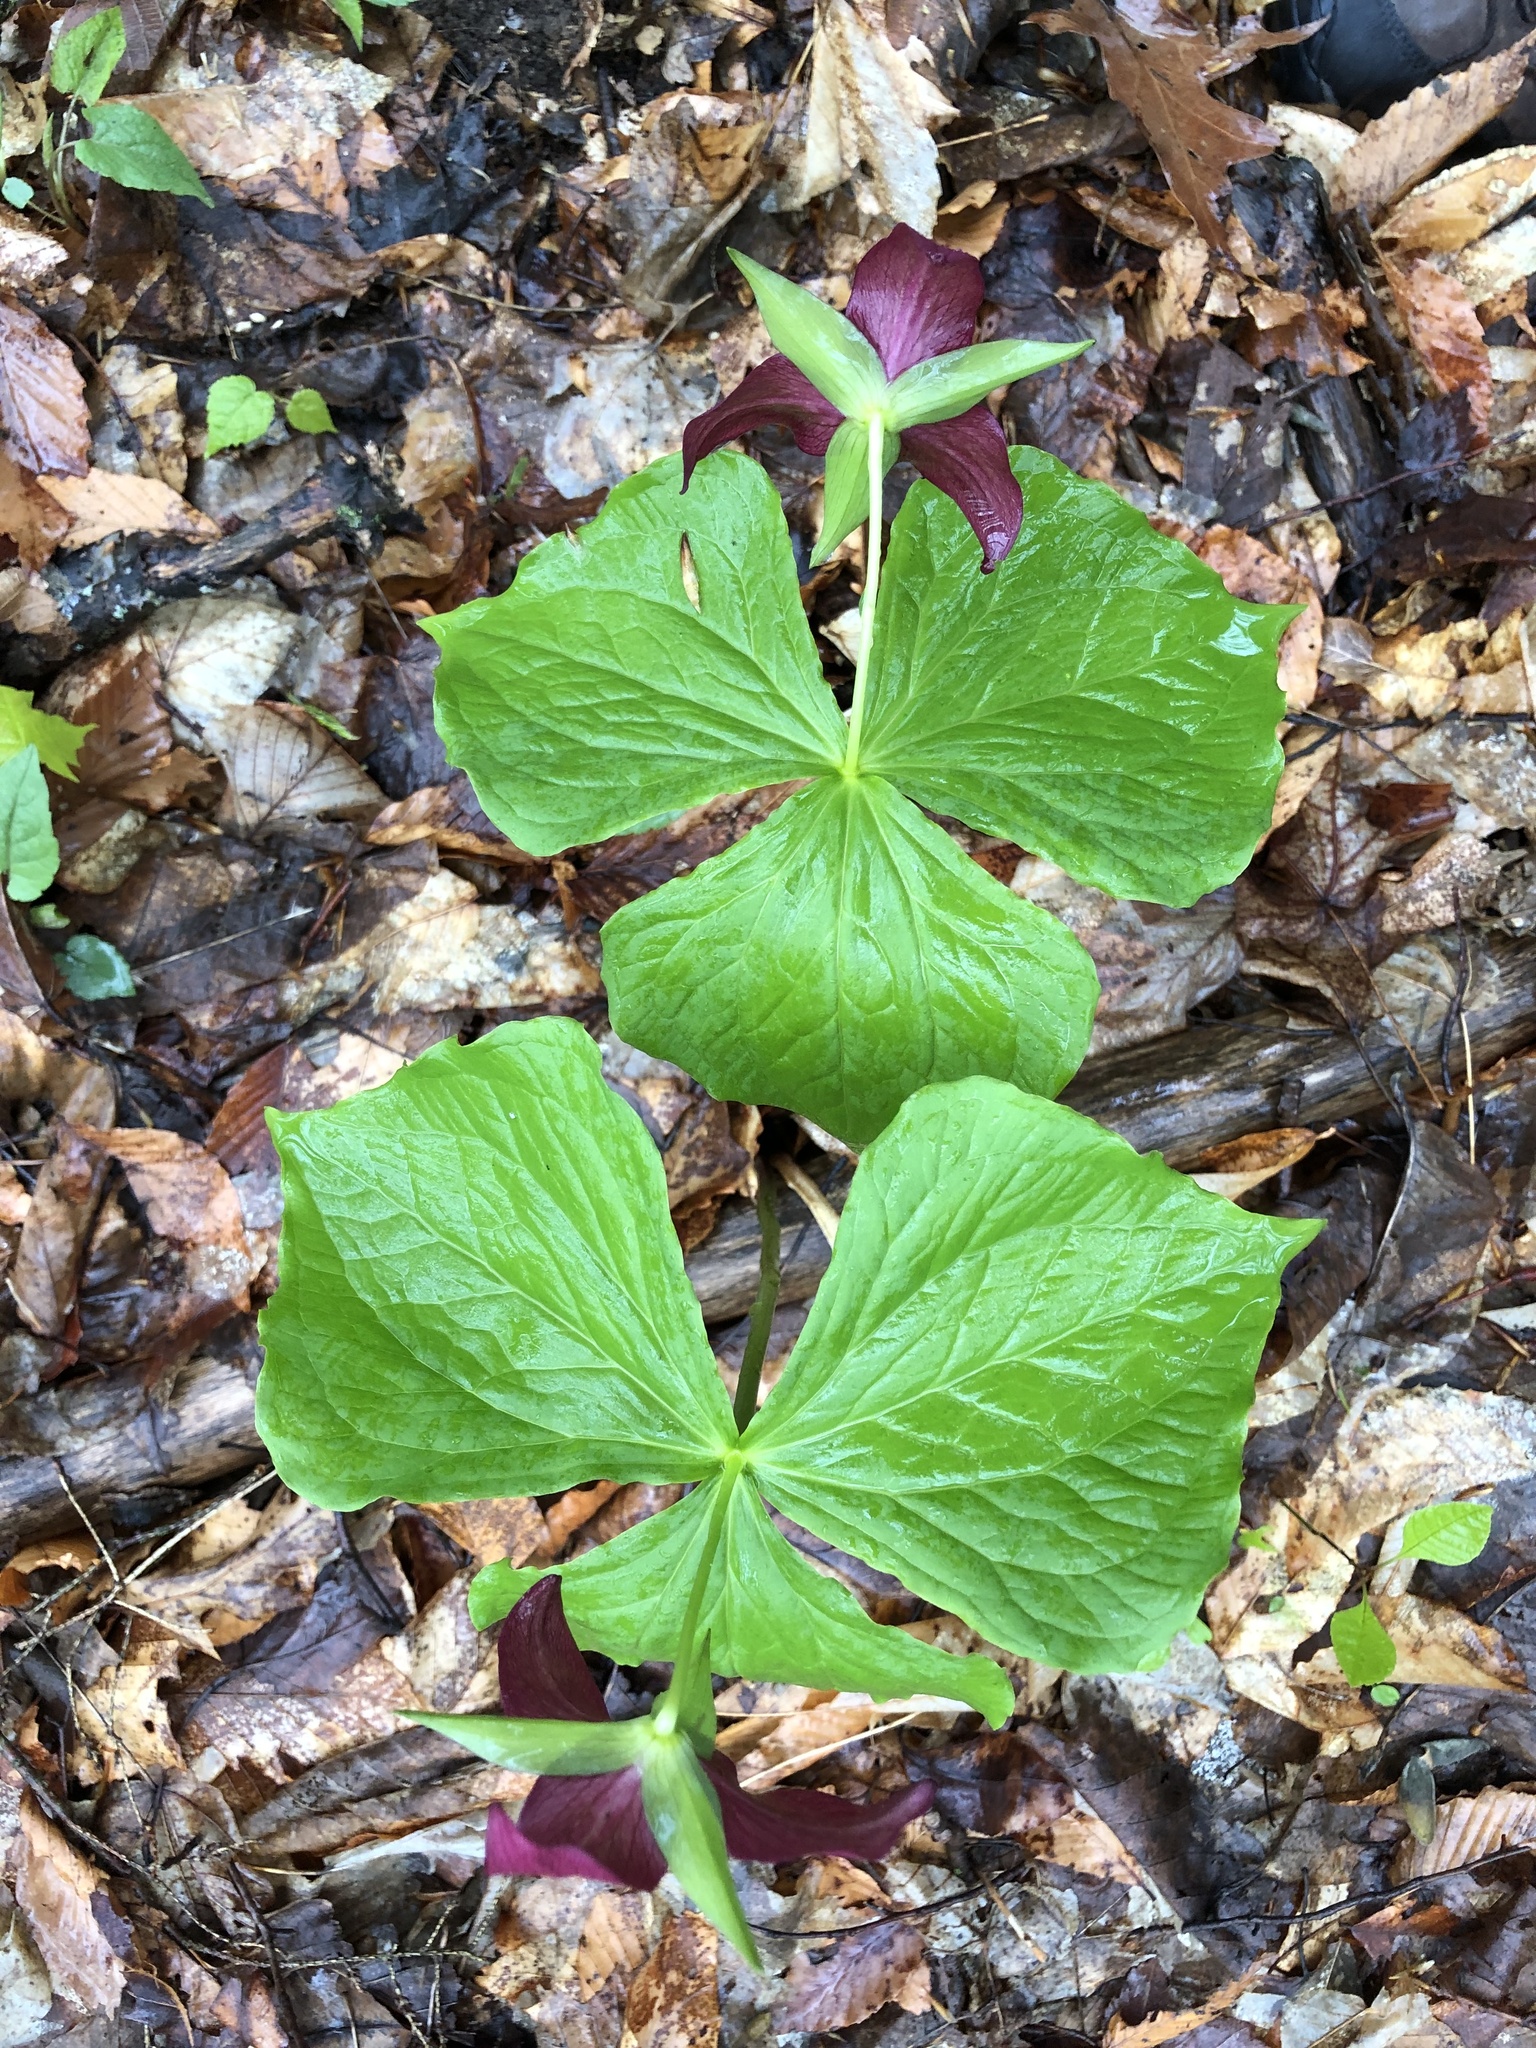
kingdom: Plantae
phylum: Tracheophyta
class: Liliopsida
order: Liliales
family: Melanthiaceae
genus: Trillium
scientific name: Trillium erectum
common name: Purple trillium
